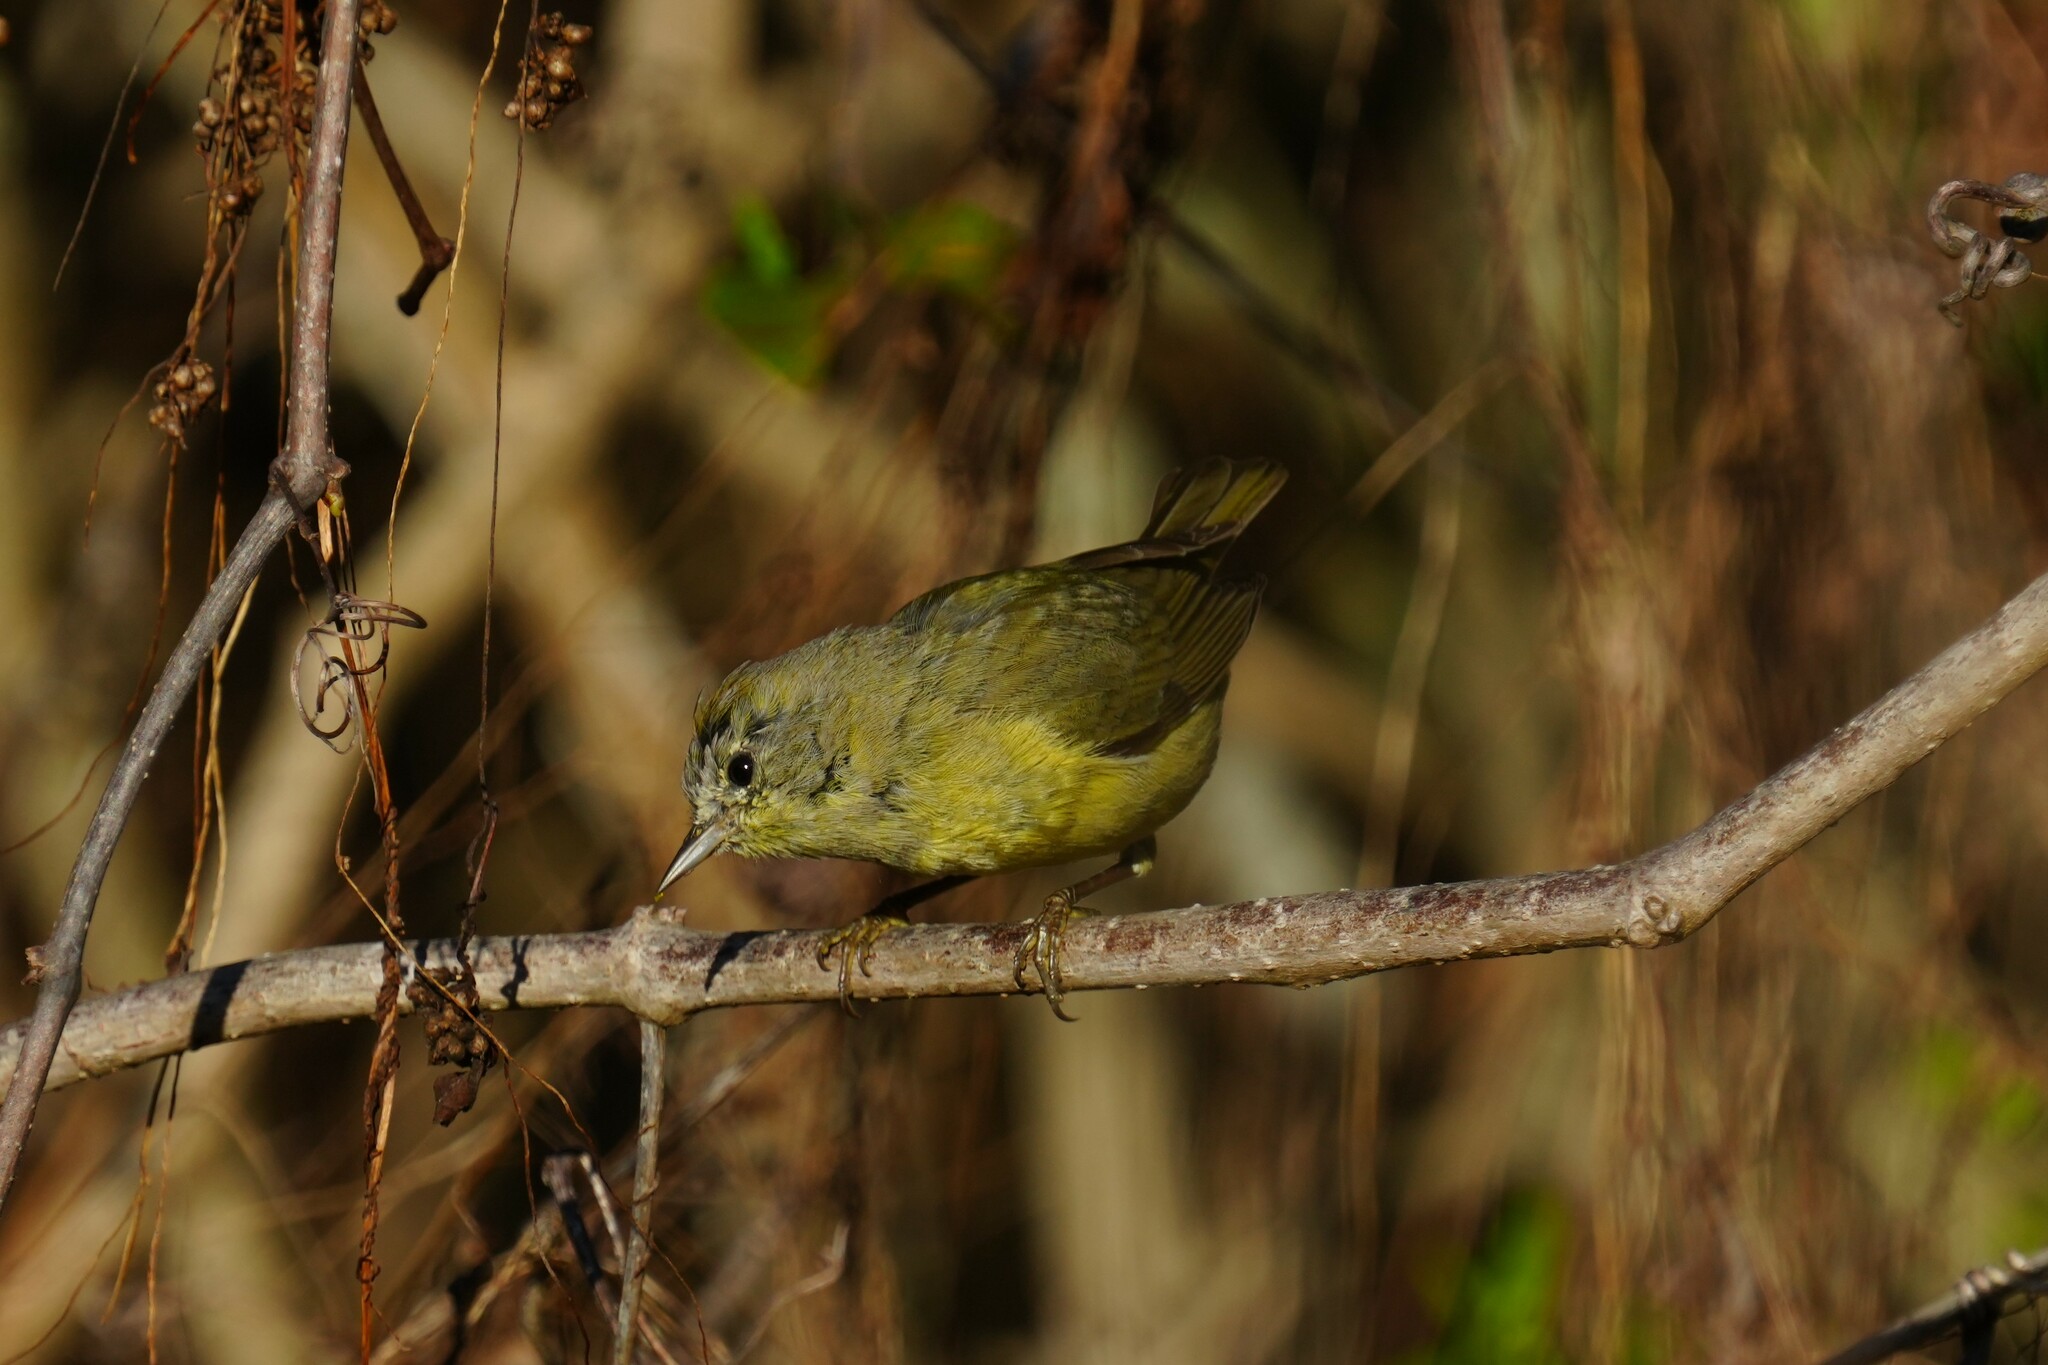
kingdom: Animalia
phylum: Chordata
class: Aves
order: Passeriformes
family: Parulidae
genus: Leiothlypis
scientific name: Leiothlypis celata
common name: Orange-crowned warbler
